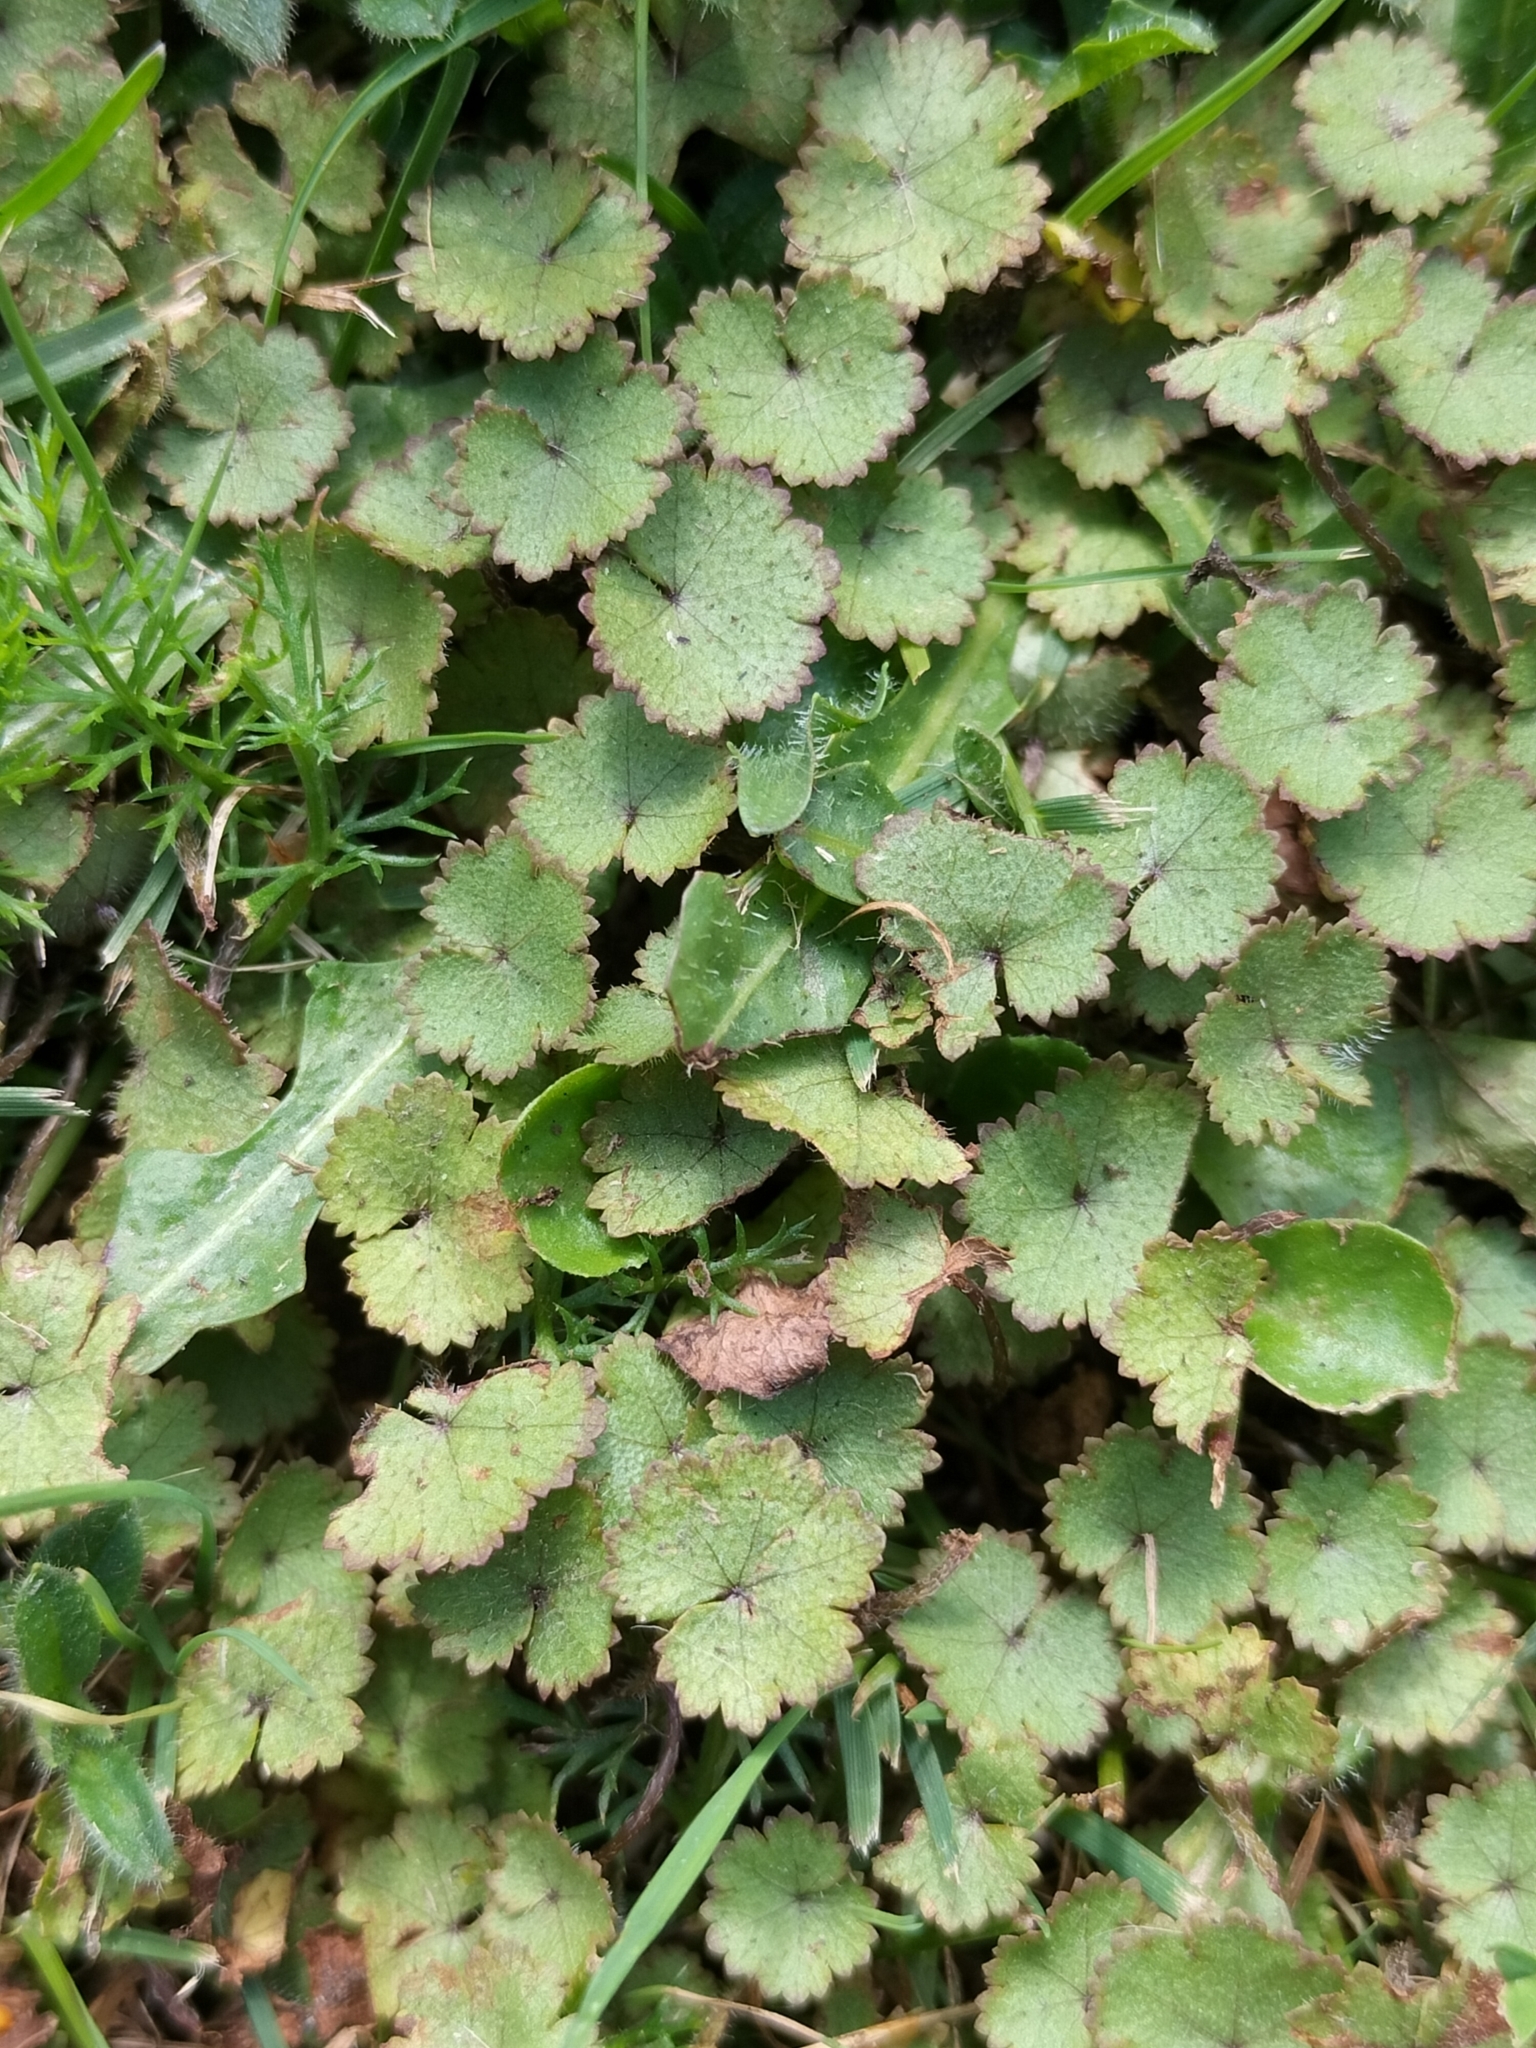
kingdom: Plantae
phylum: Tracheophyta
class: Magnoliopsida
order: Apiales
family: Araliaceae
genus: Hydrocotyle
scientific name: Hydrocotyle moschata
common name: Hairy pennywort
